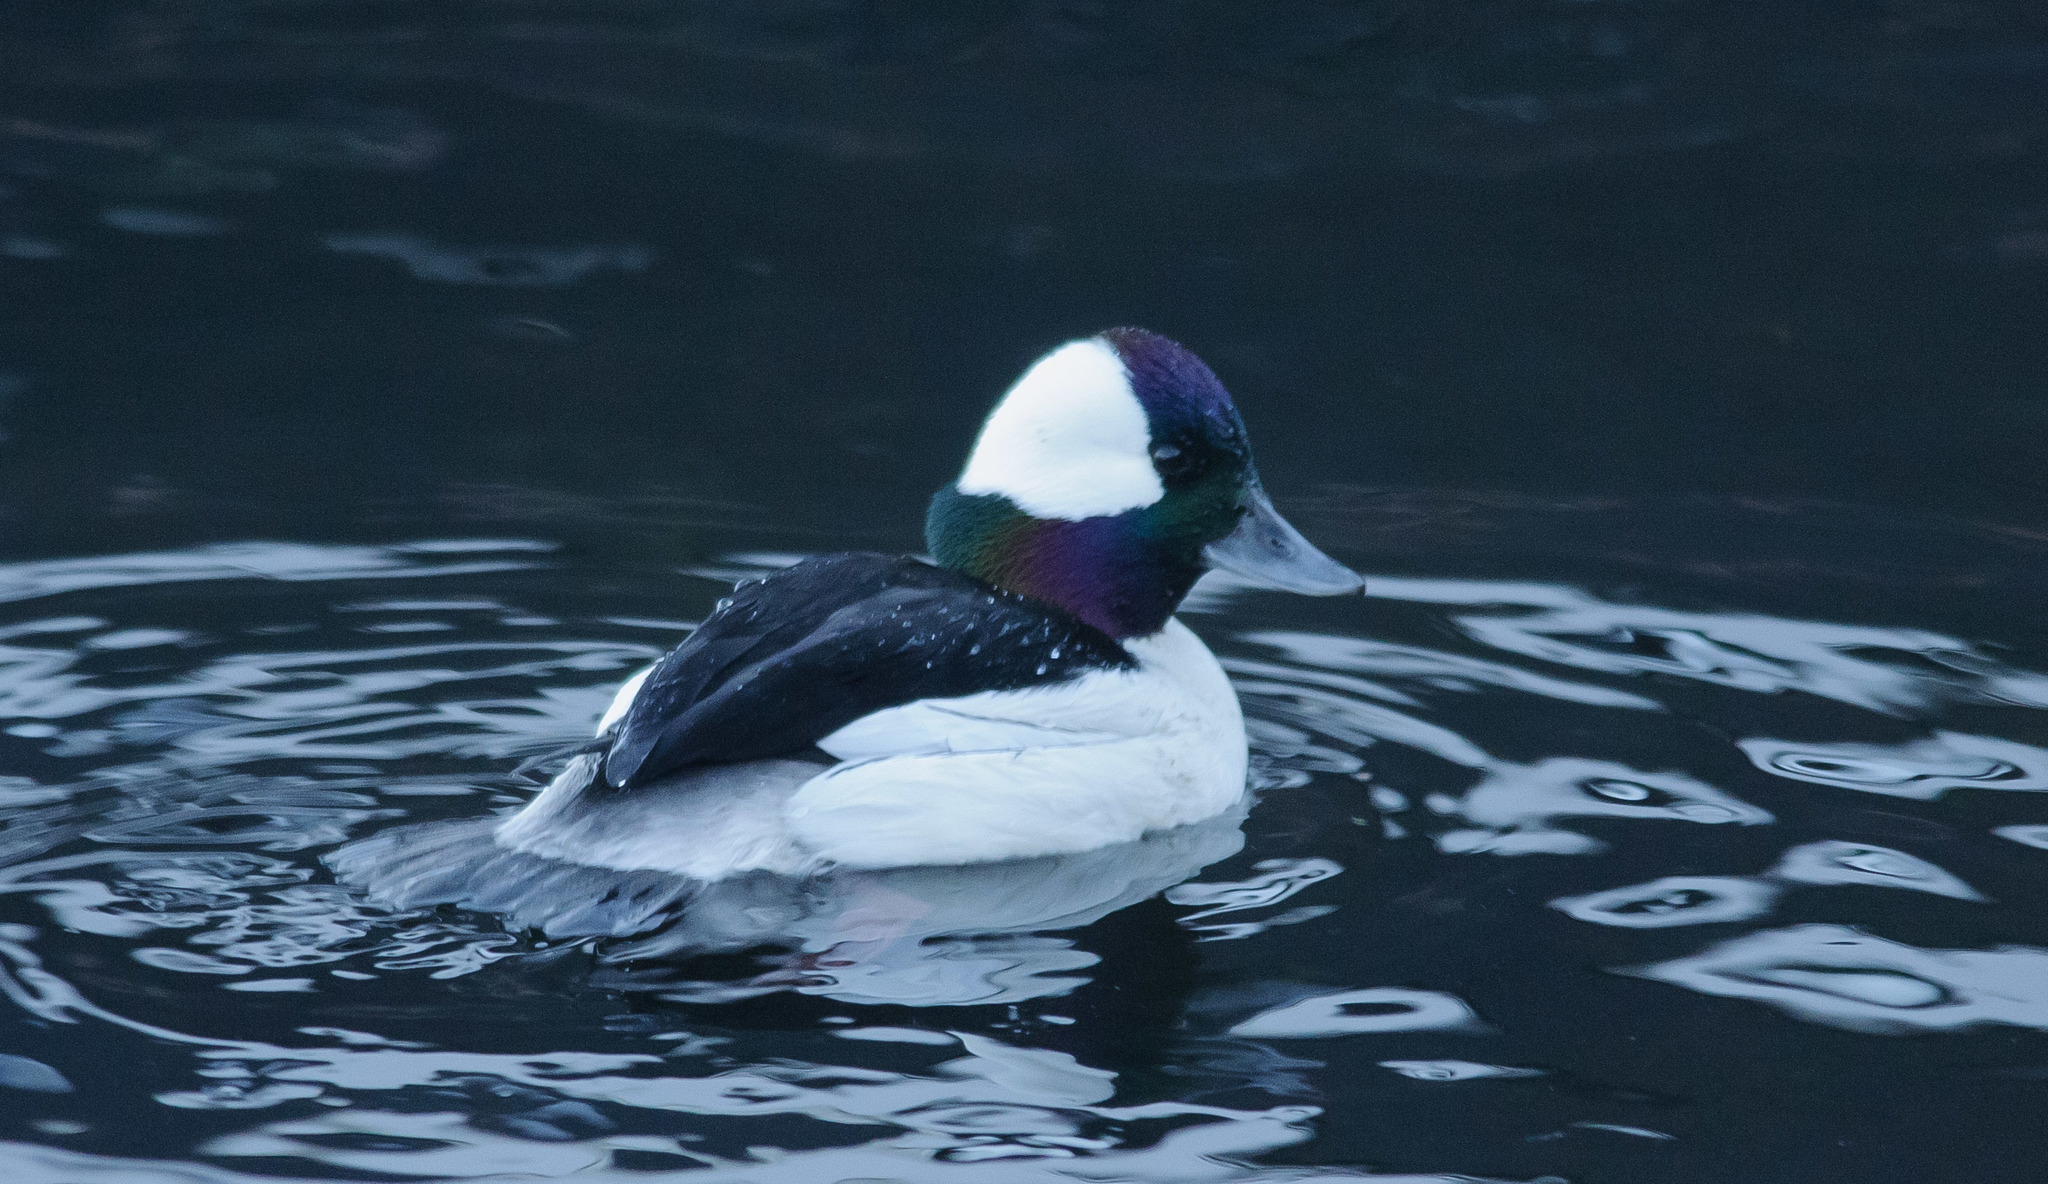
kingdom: Animalia
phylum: Chordata
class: Aves
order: Anseriformes
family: Anatidae
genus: Bucephala
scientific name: Bucephala albeola
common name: Bufflehead
